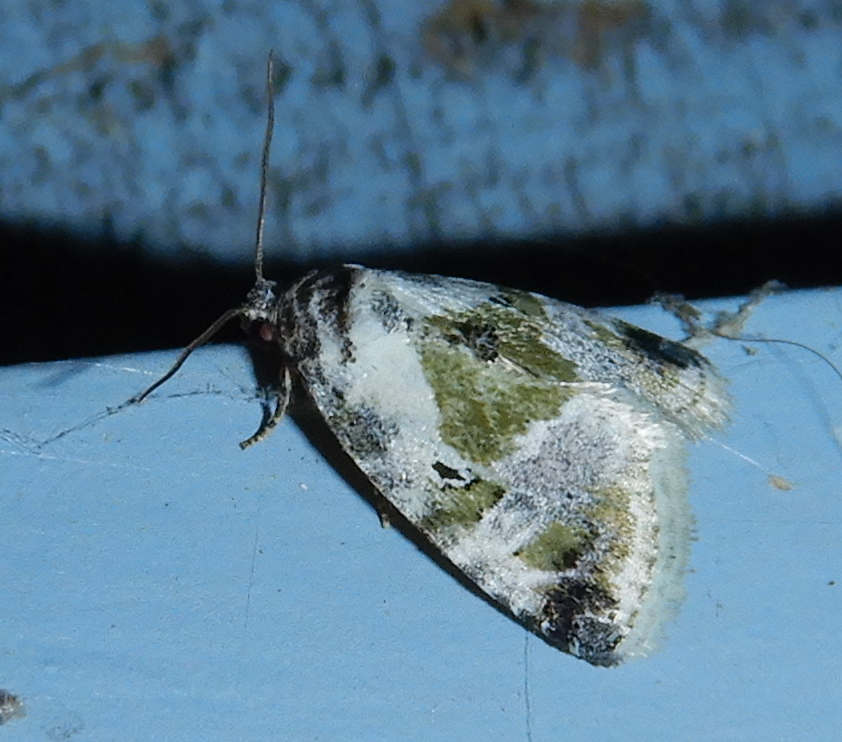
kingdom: Animalia
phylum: Arthropoda
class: Insecta
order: Lepidoptera
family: Noctuidae
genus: Maliattha
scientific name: Maliattha synochitis
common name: Black-dotted glyph
